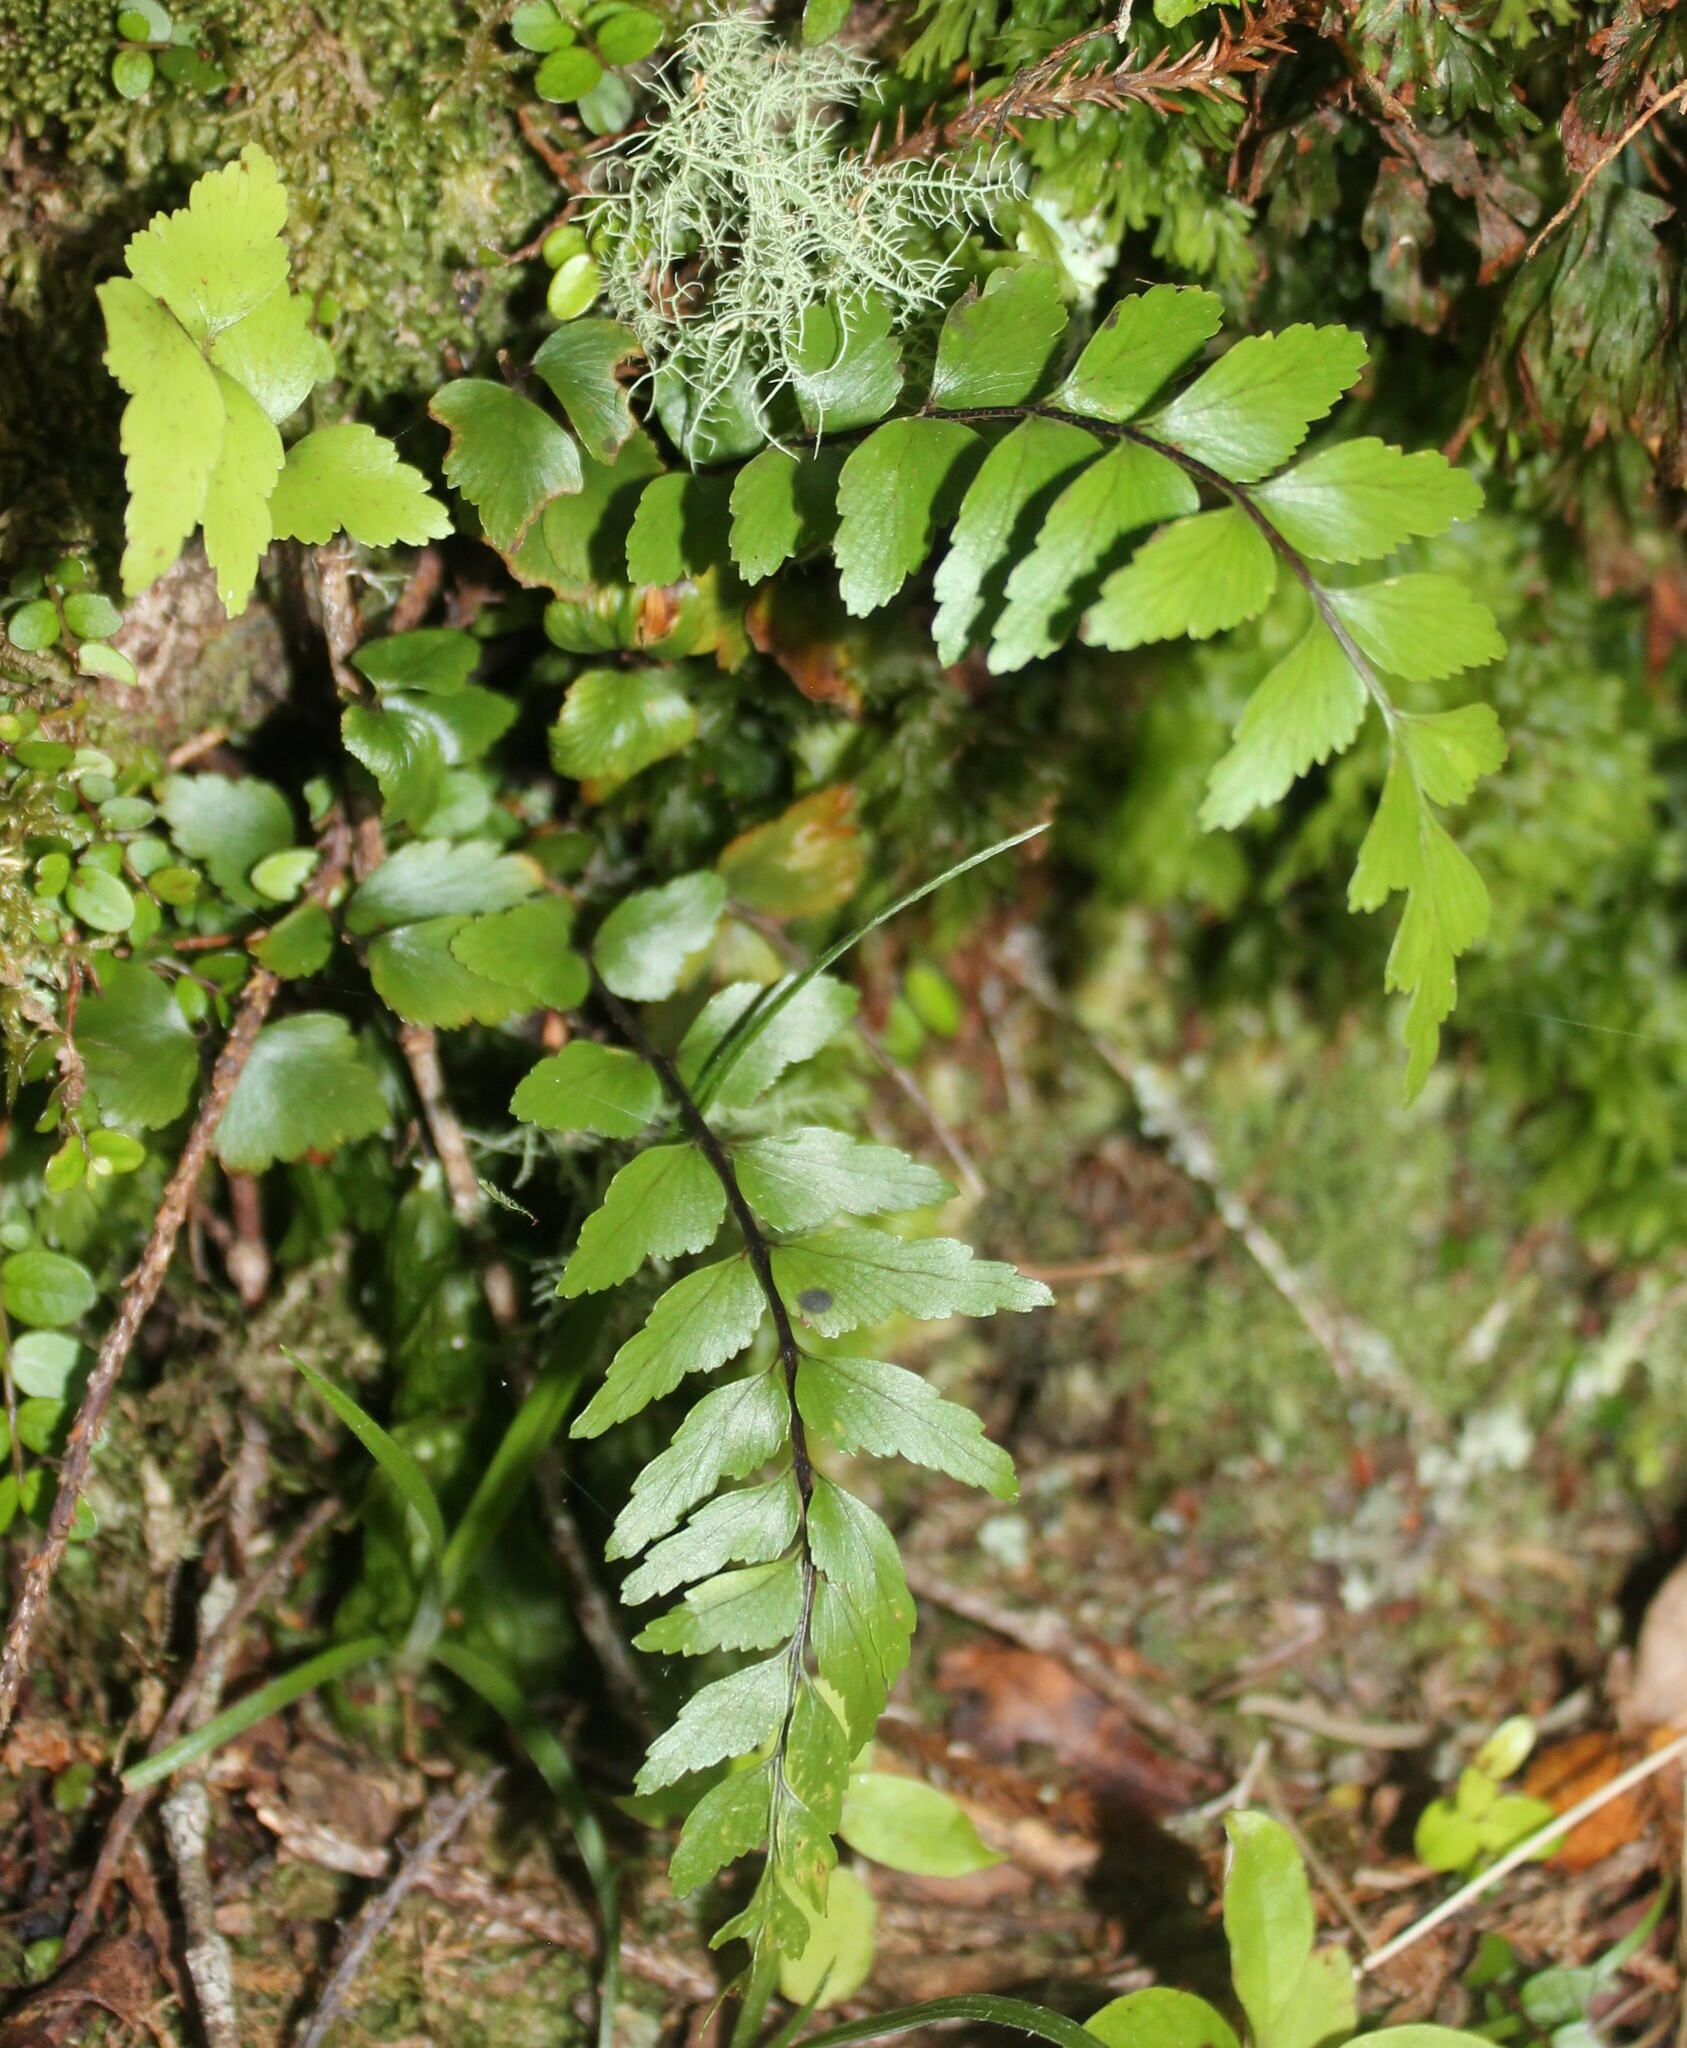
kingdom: Plantae
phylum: Tracheophyta
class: Polypodiopsida
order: Polypodiales
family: Aspleniaceae
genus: Asplenium
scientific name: Asplenium polyodon
